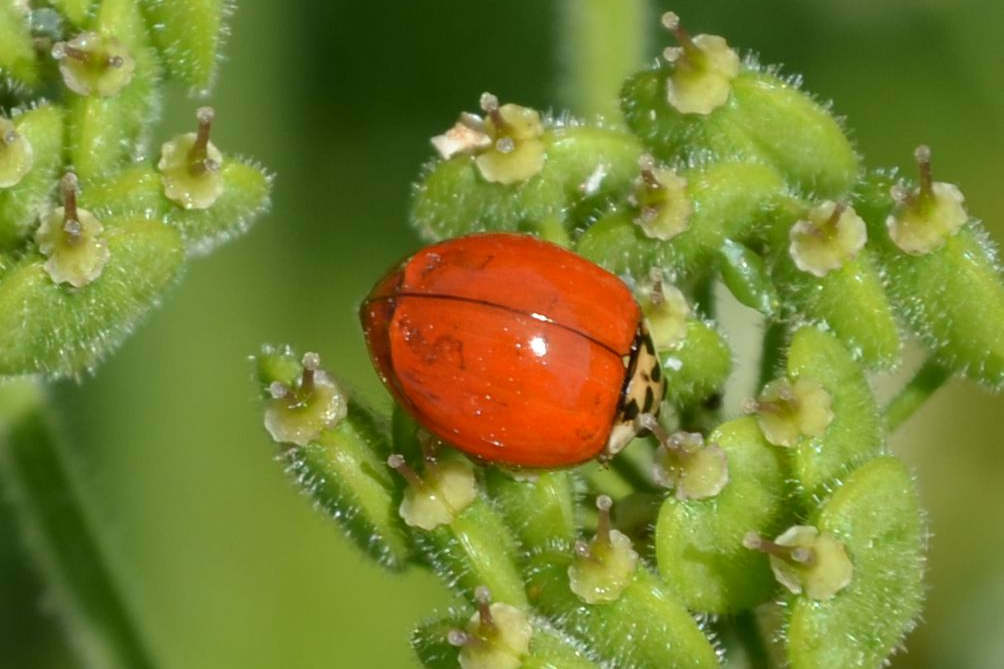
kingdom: Animalia
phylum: Arthropoda
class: Insecta
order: Coleoptera
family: Coccinellidae
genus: Harmonia
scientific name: Harmonia axyridis
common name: Harlequin ladybird
